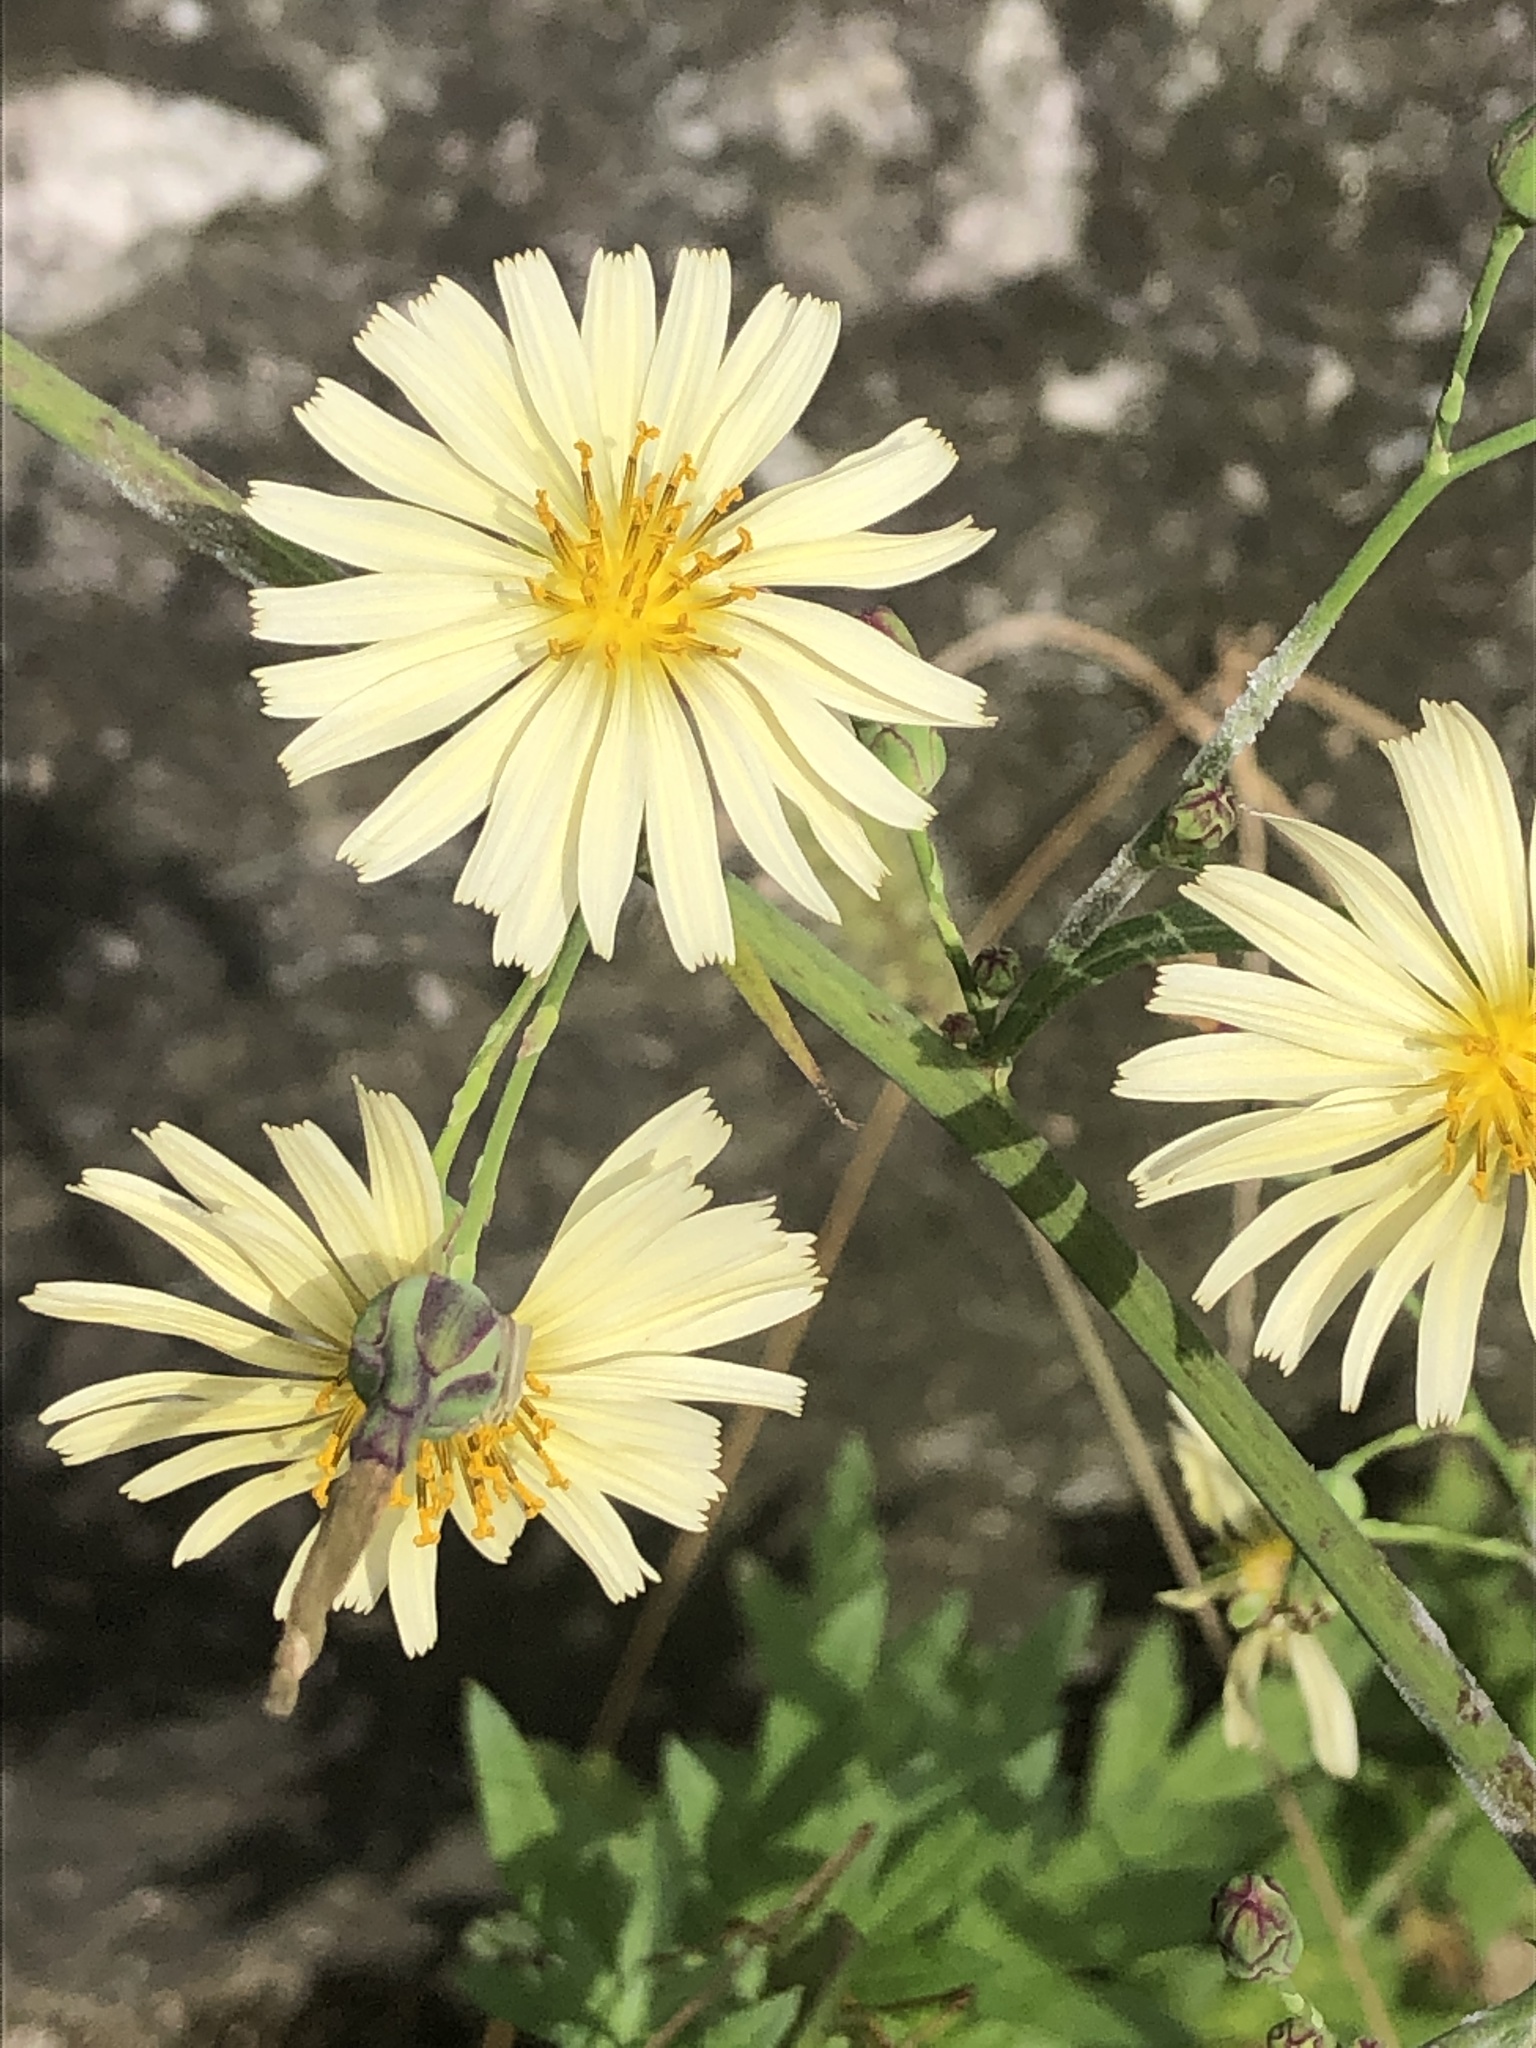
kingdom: Plantae
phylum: Tracheophyta
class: Magnoliopsida
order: Asterales
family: Asteraceae
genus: Lactuca
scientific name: Lactuca indica
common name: Wild lettuce
